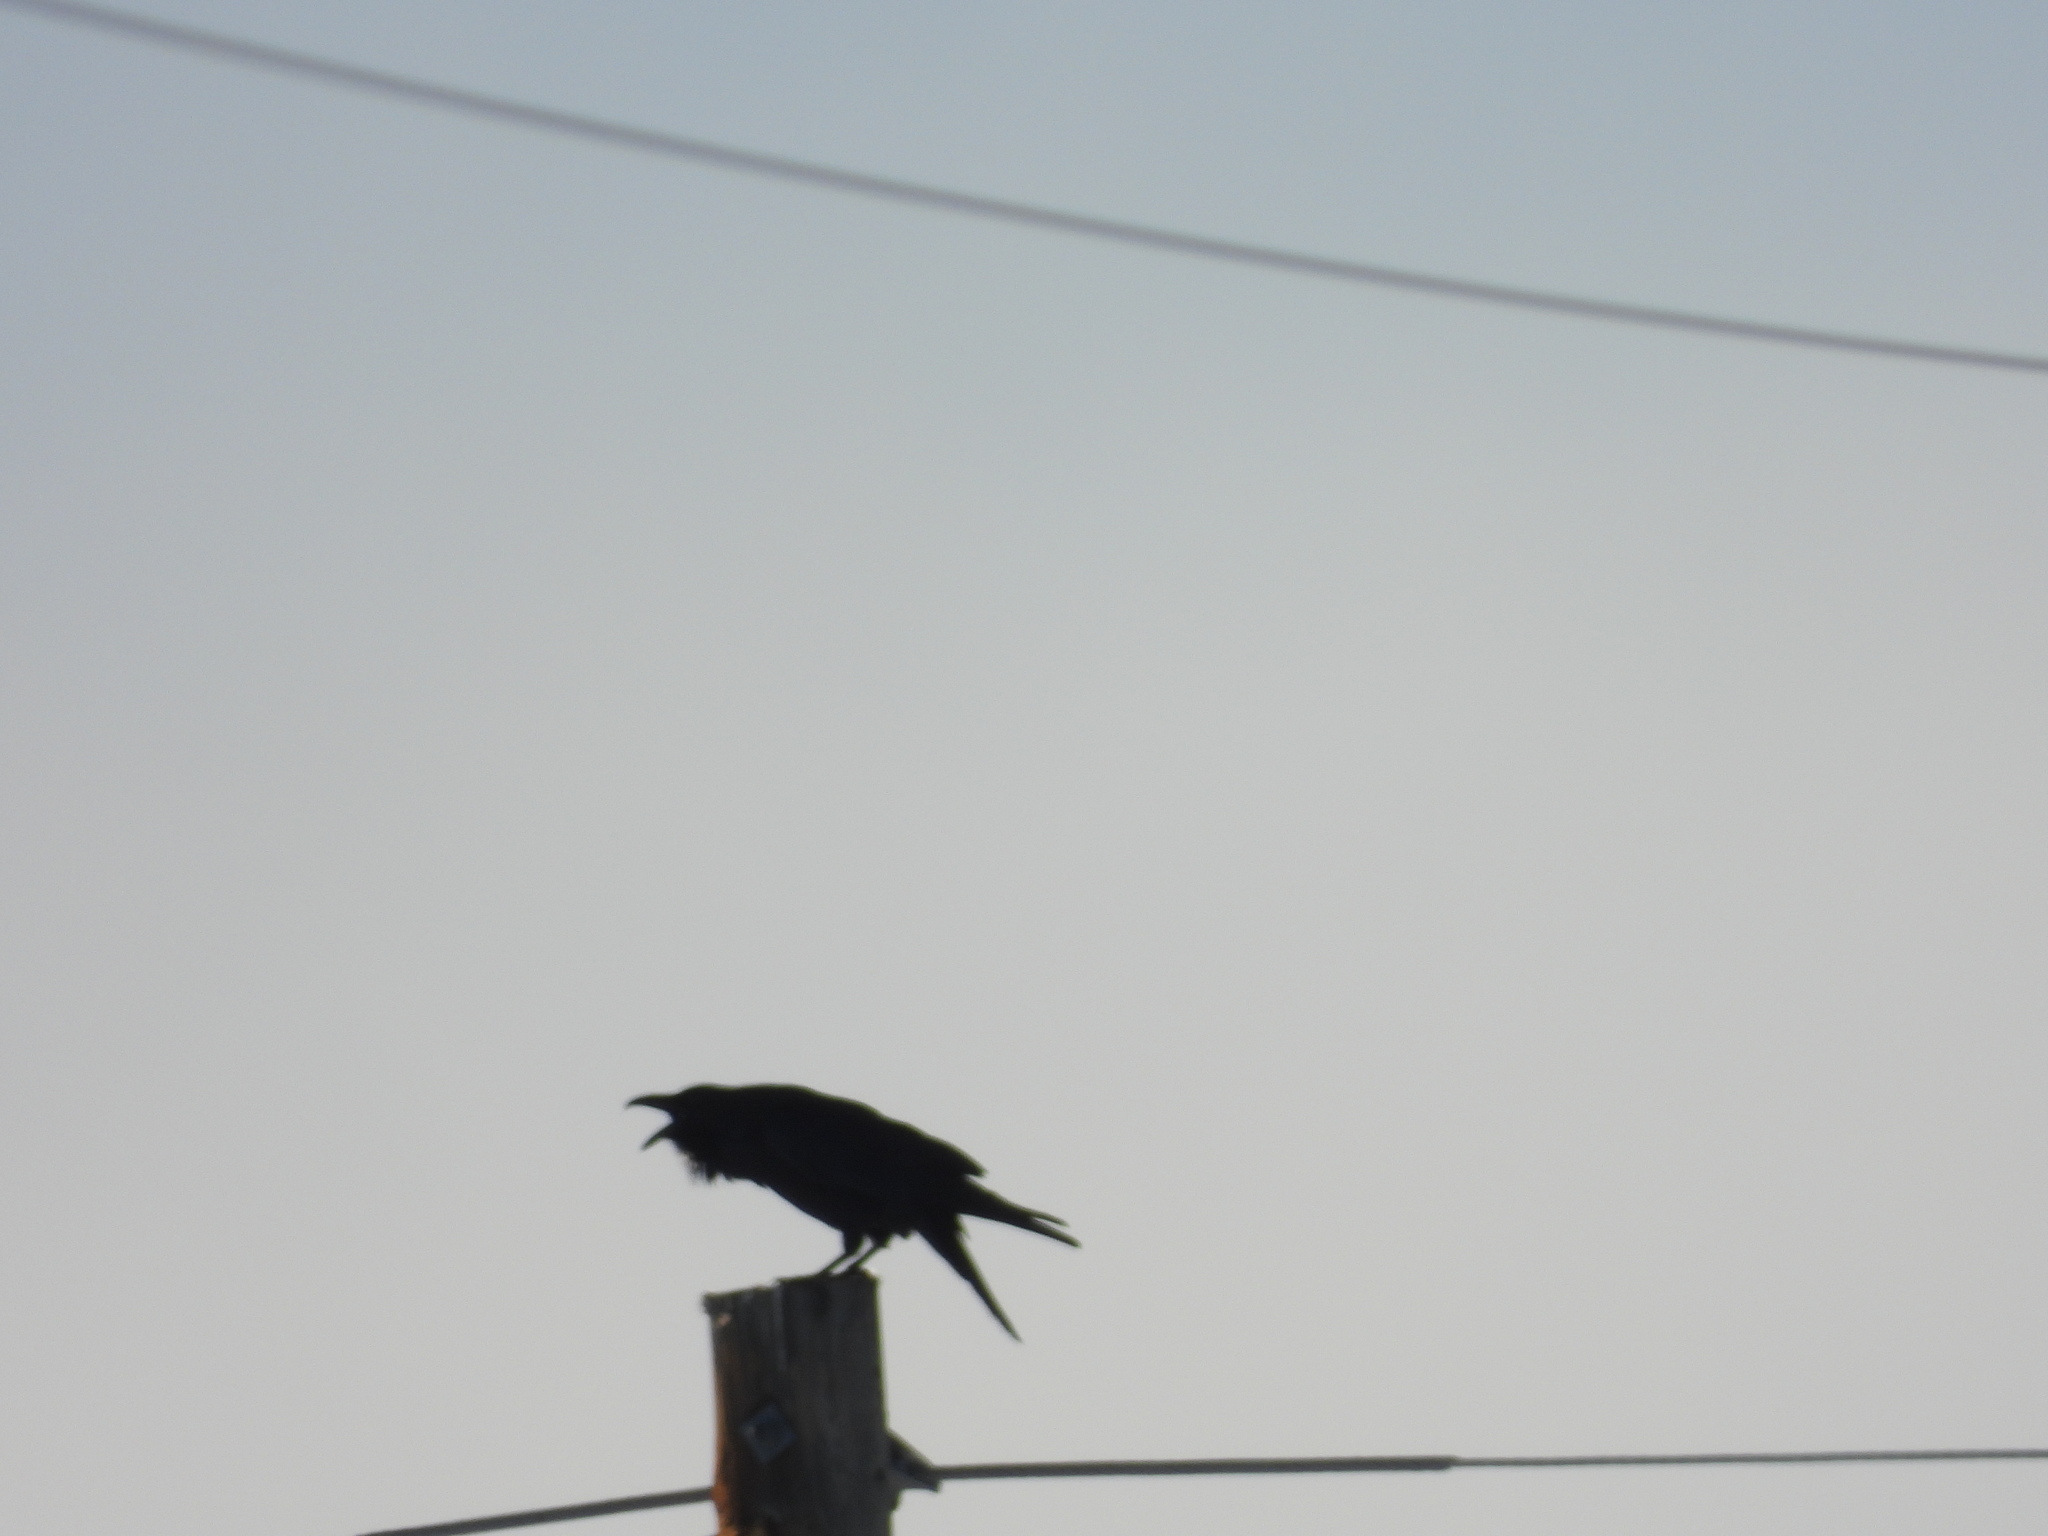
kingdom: Animalia
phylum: Chordata
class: Aves
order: Passeriformes
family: Corvidae
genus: Corvus
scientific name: Corvus corax
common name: Common raven
